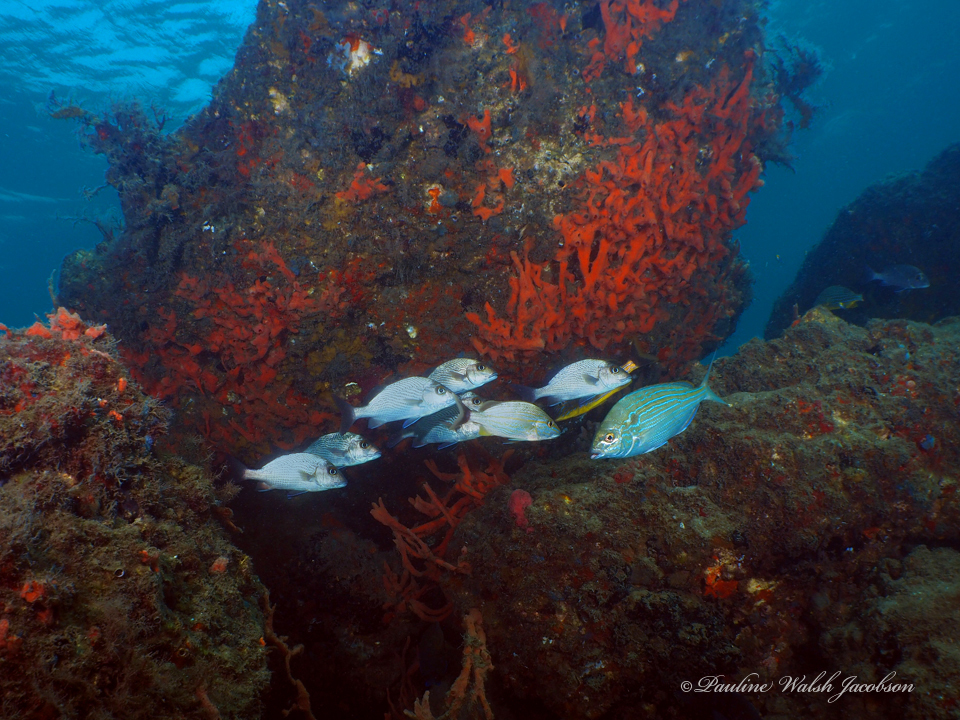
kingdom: Animalia
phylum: Chordata
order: Perciformes
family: Haemulidae
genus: Haemulon
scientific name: Haemulon parra
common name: Sailor's choice
